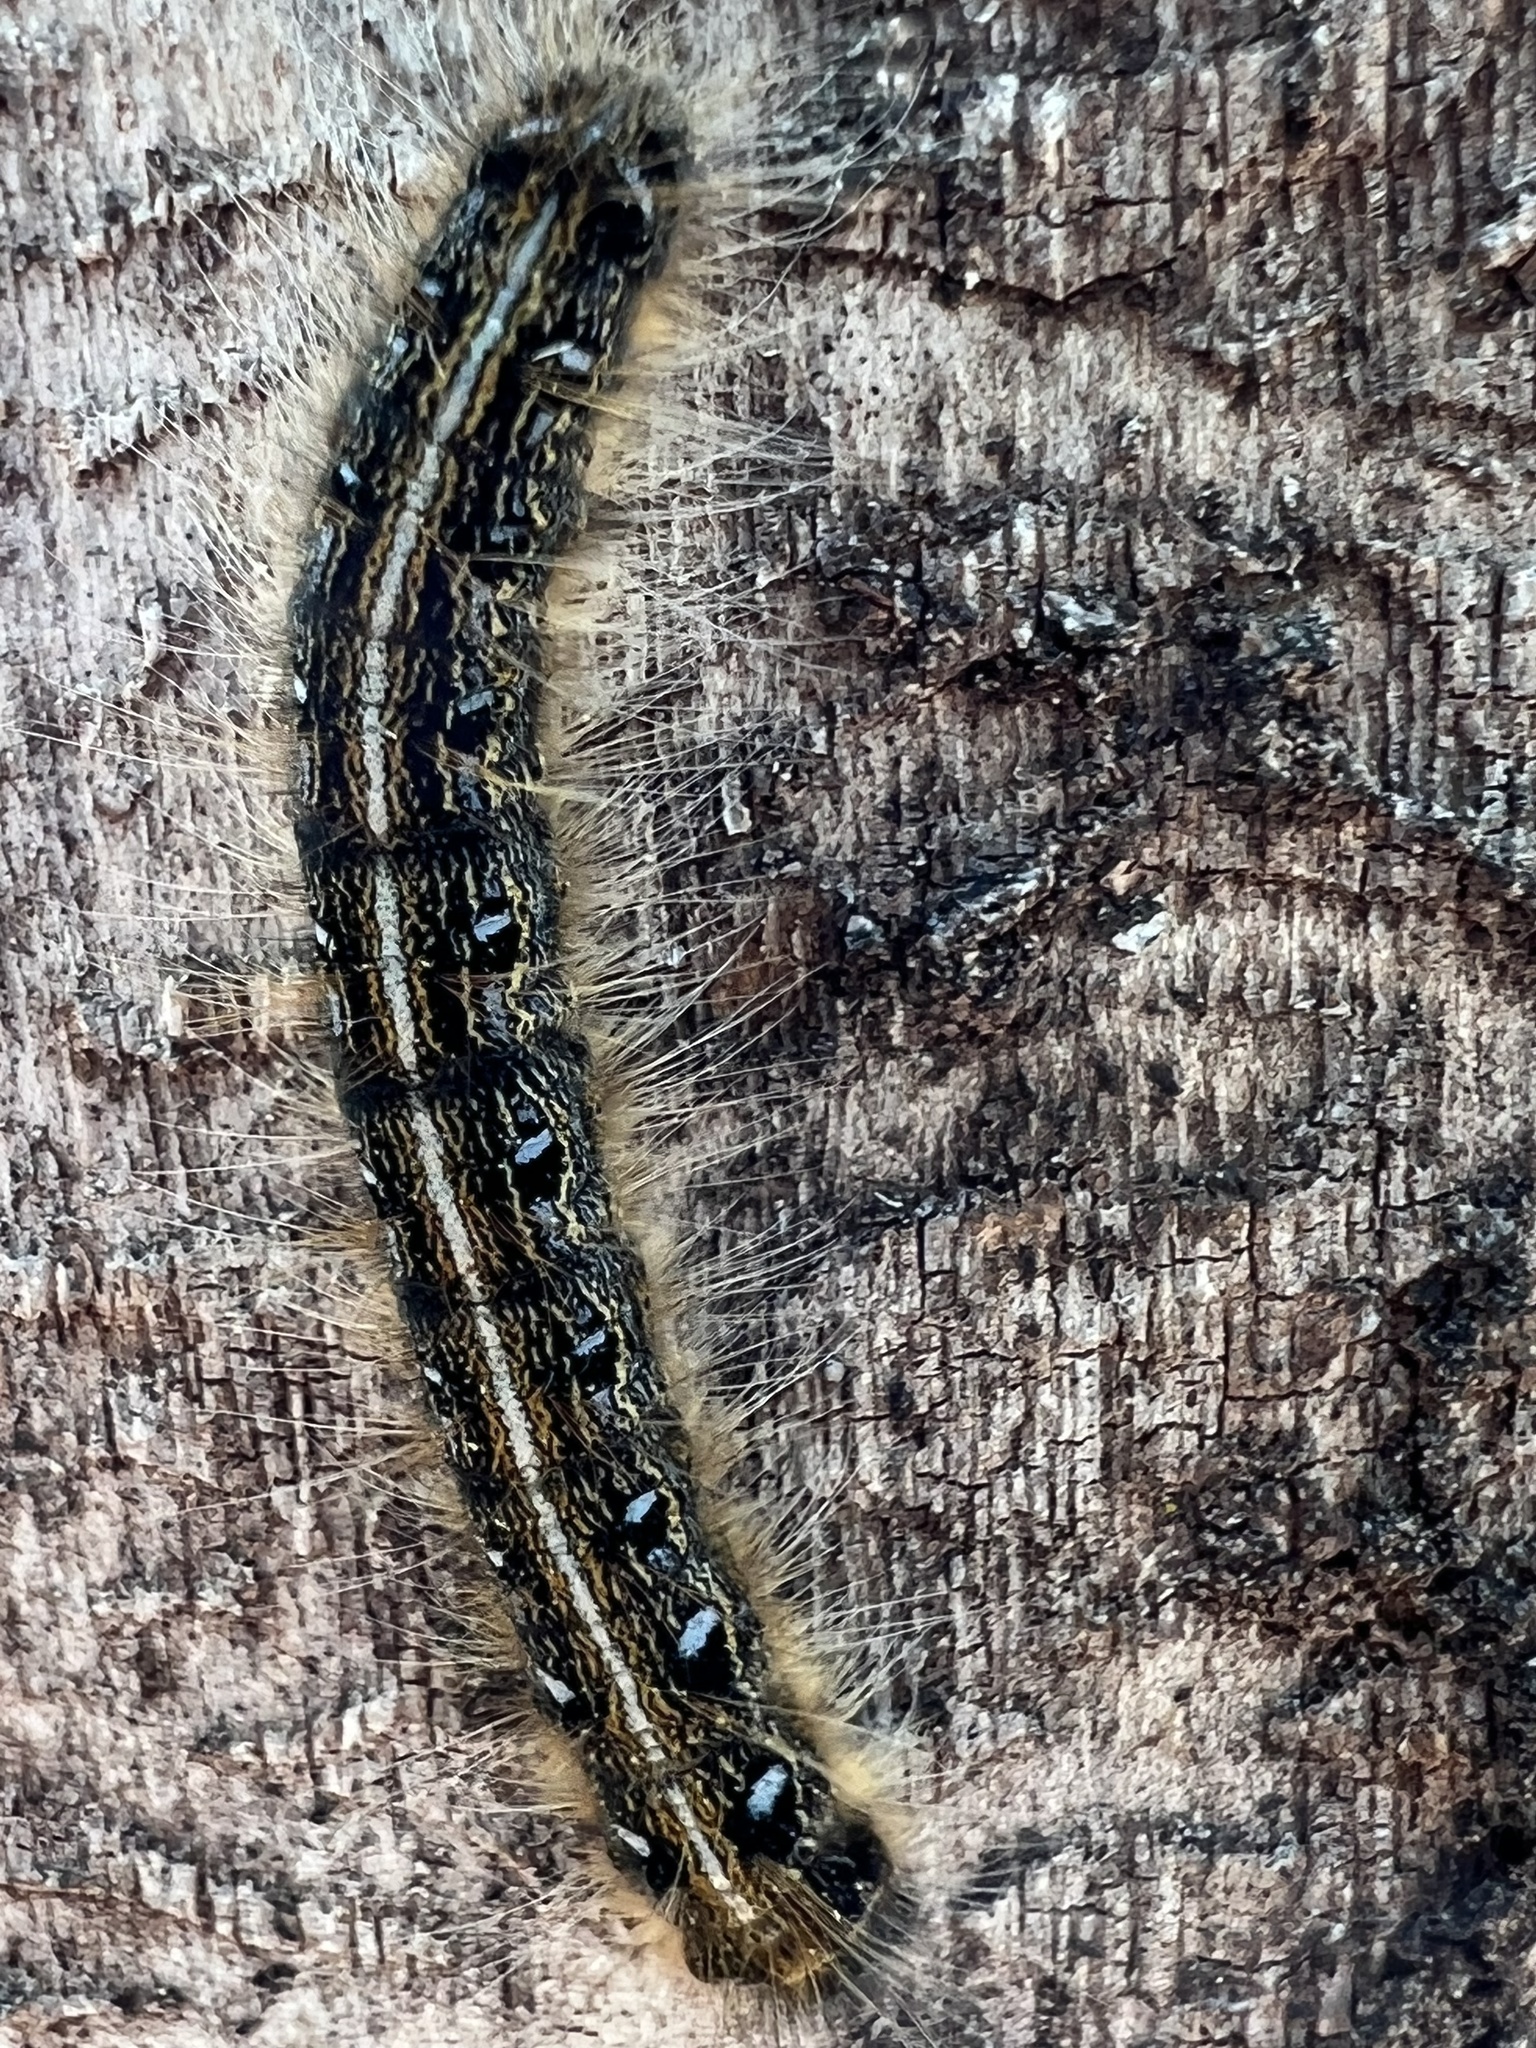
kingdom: Animalia
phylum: Arthropoda
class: Insecta
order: Lepidoptera
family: Lasiocampidae
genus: Malacosoma
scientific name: Malacosoma americana
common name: Eastern tent caterpillar moth
